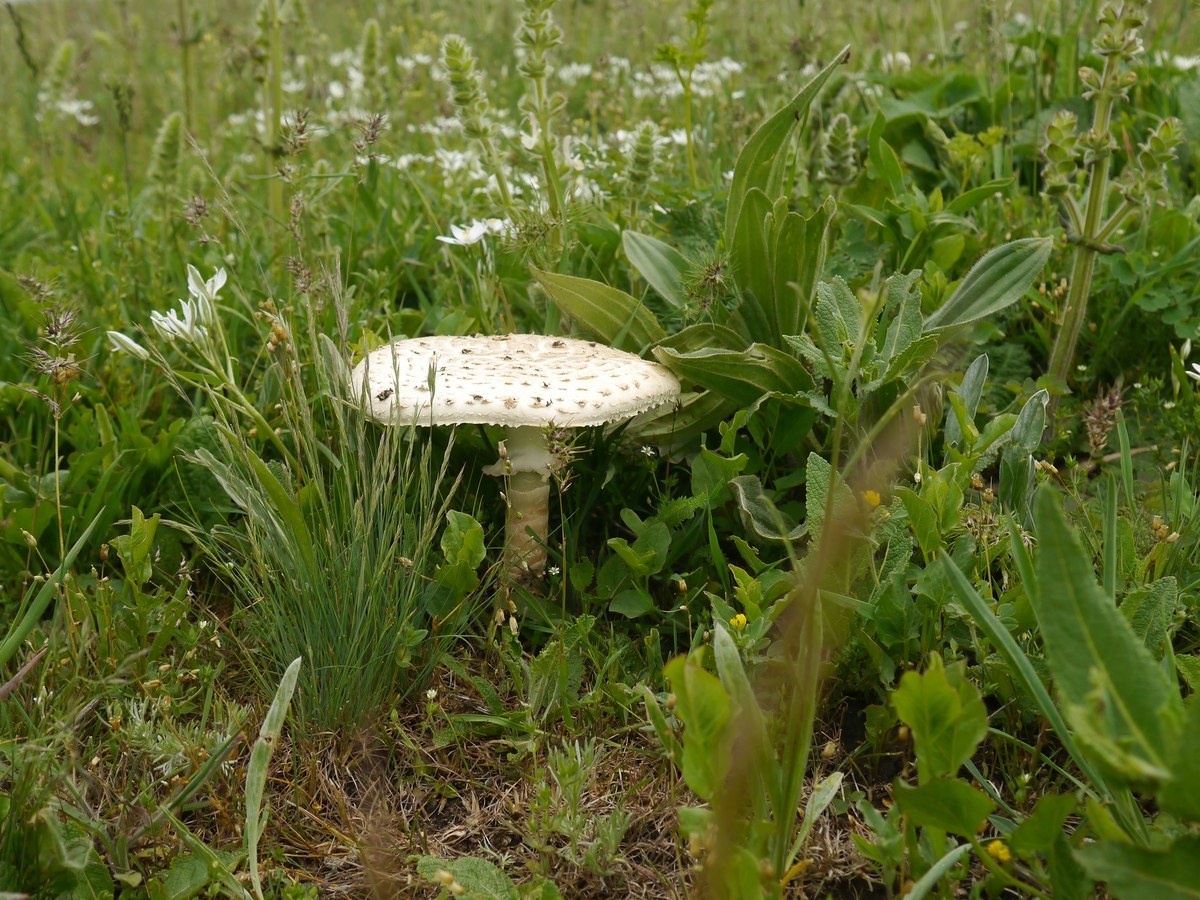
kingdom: Fungi
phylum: Basidiomycota
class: Agaricomycetes
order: Agaricales
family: Amanitaceae
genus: Amanita
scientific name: Amanita vittadinii
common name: Barefoot amanita
